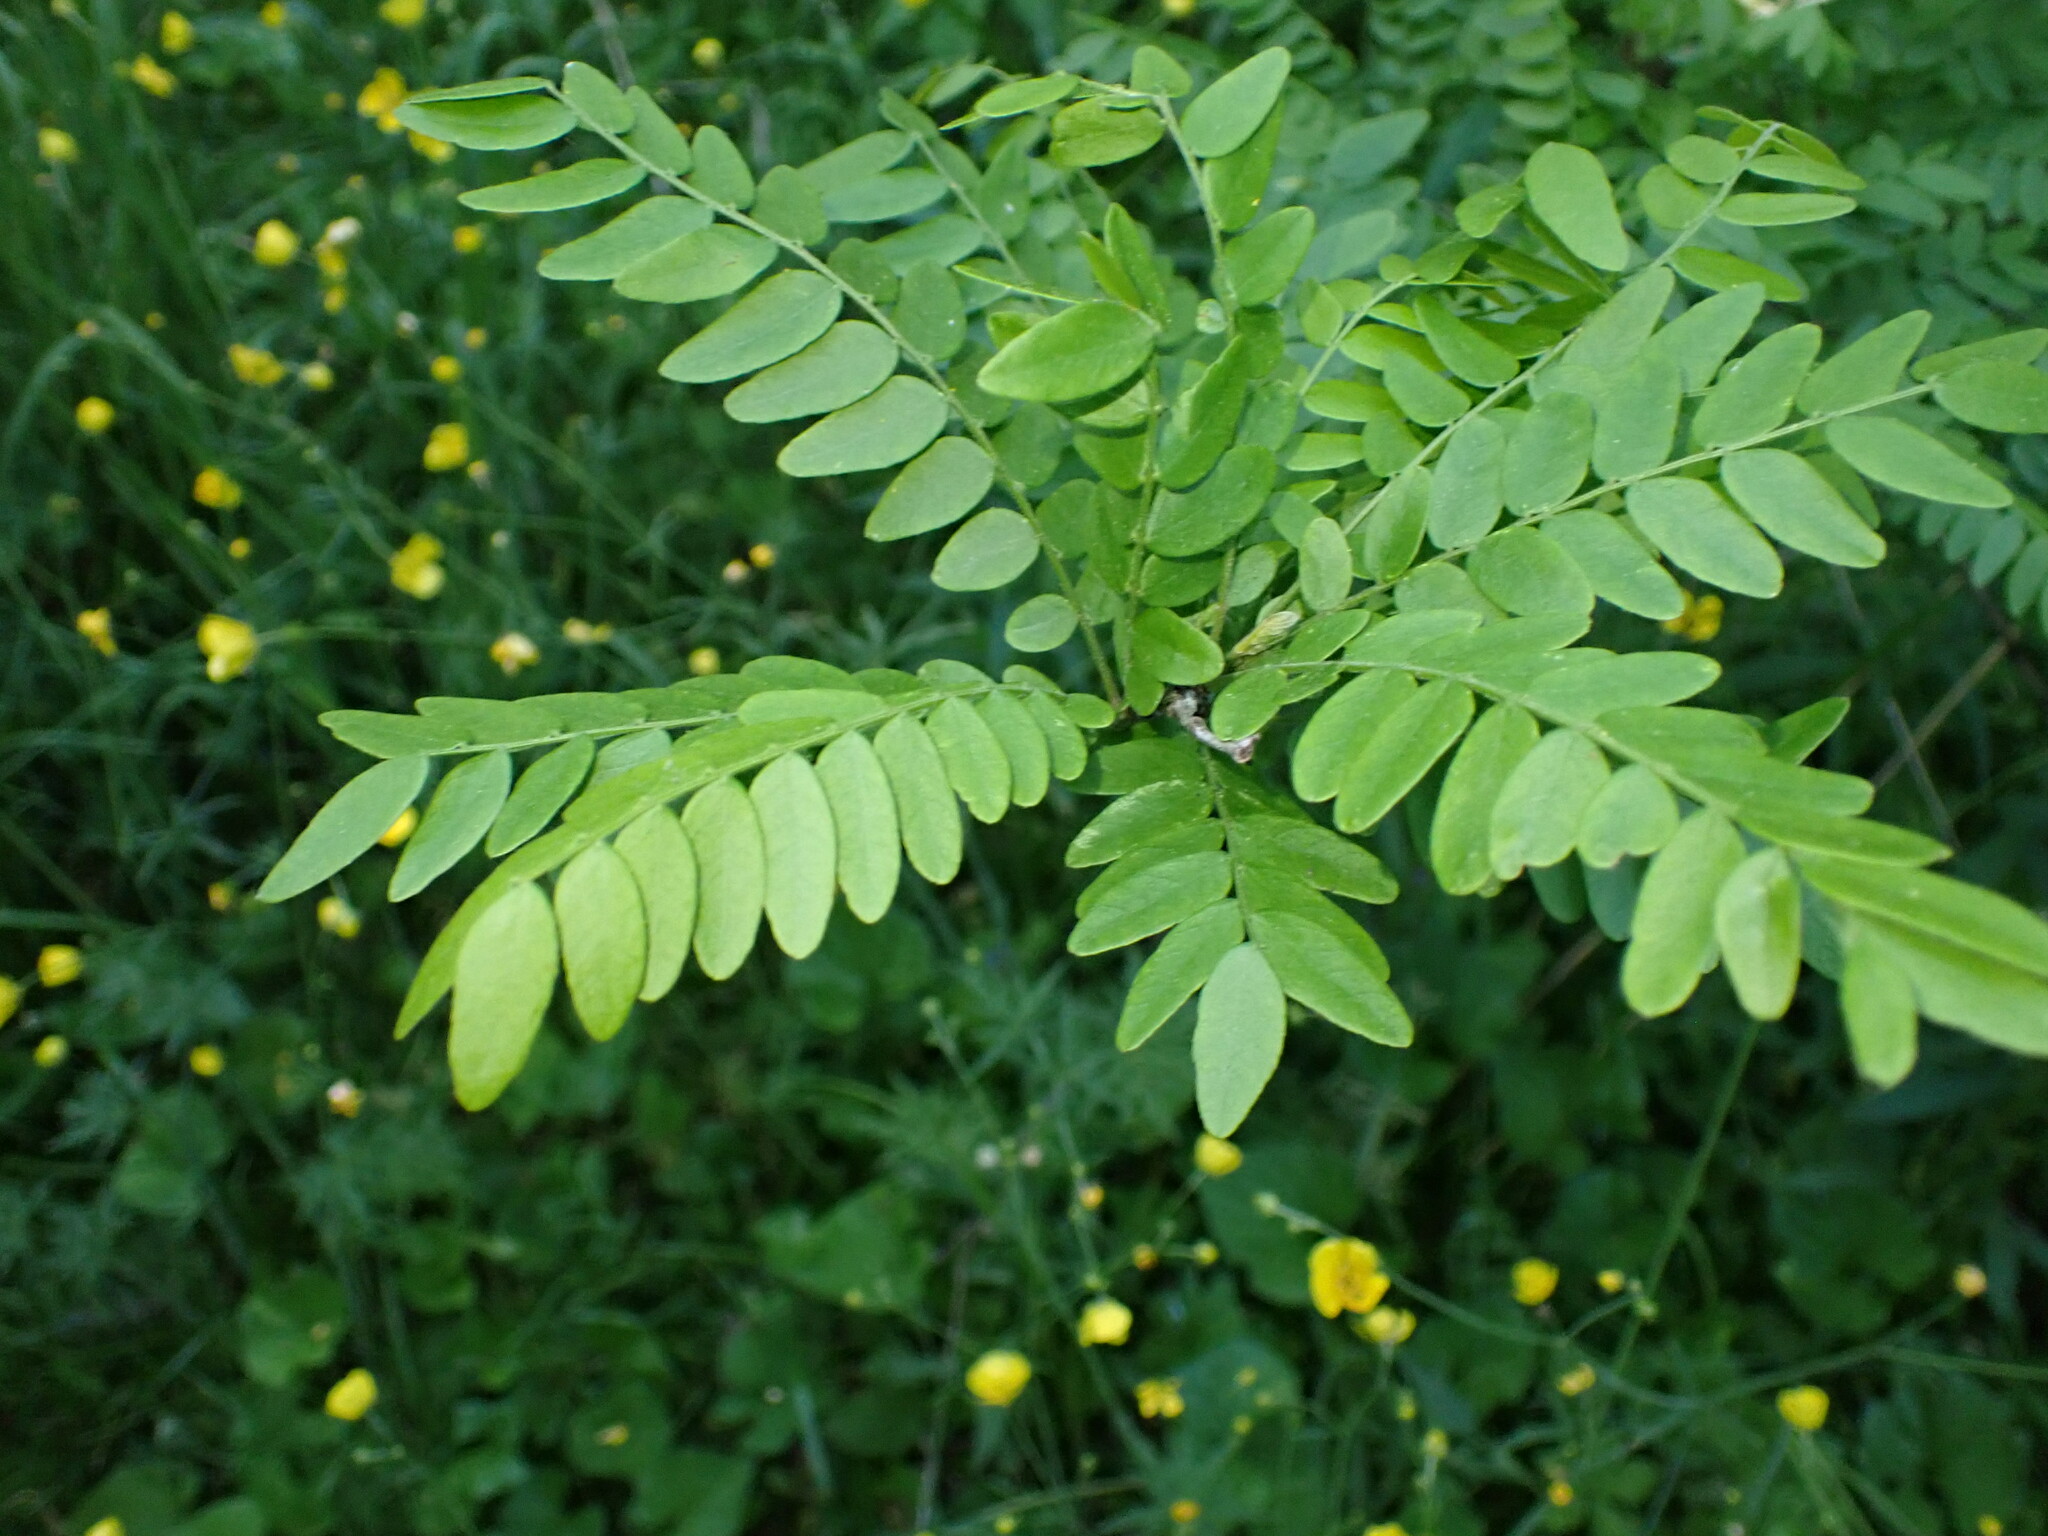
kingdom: Plantae
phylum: Tracheophyta
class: Magnoliopsida
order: Fabales
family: Fabaceae
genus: Gleditsia
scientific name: Gleditsia triacanthos
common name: Common honeylocust
